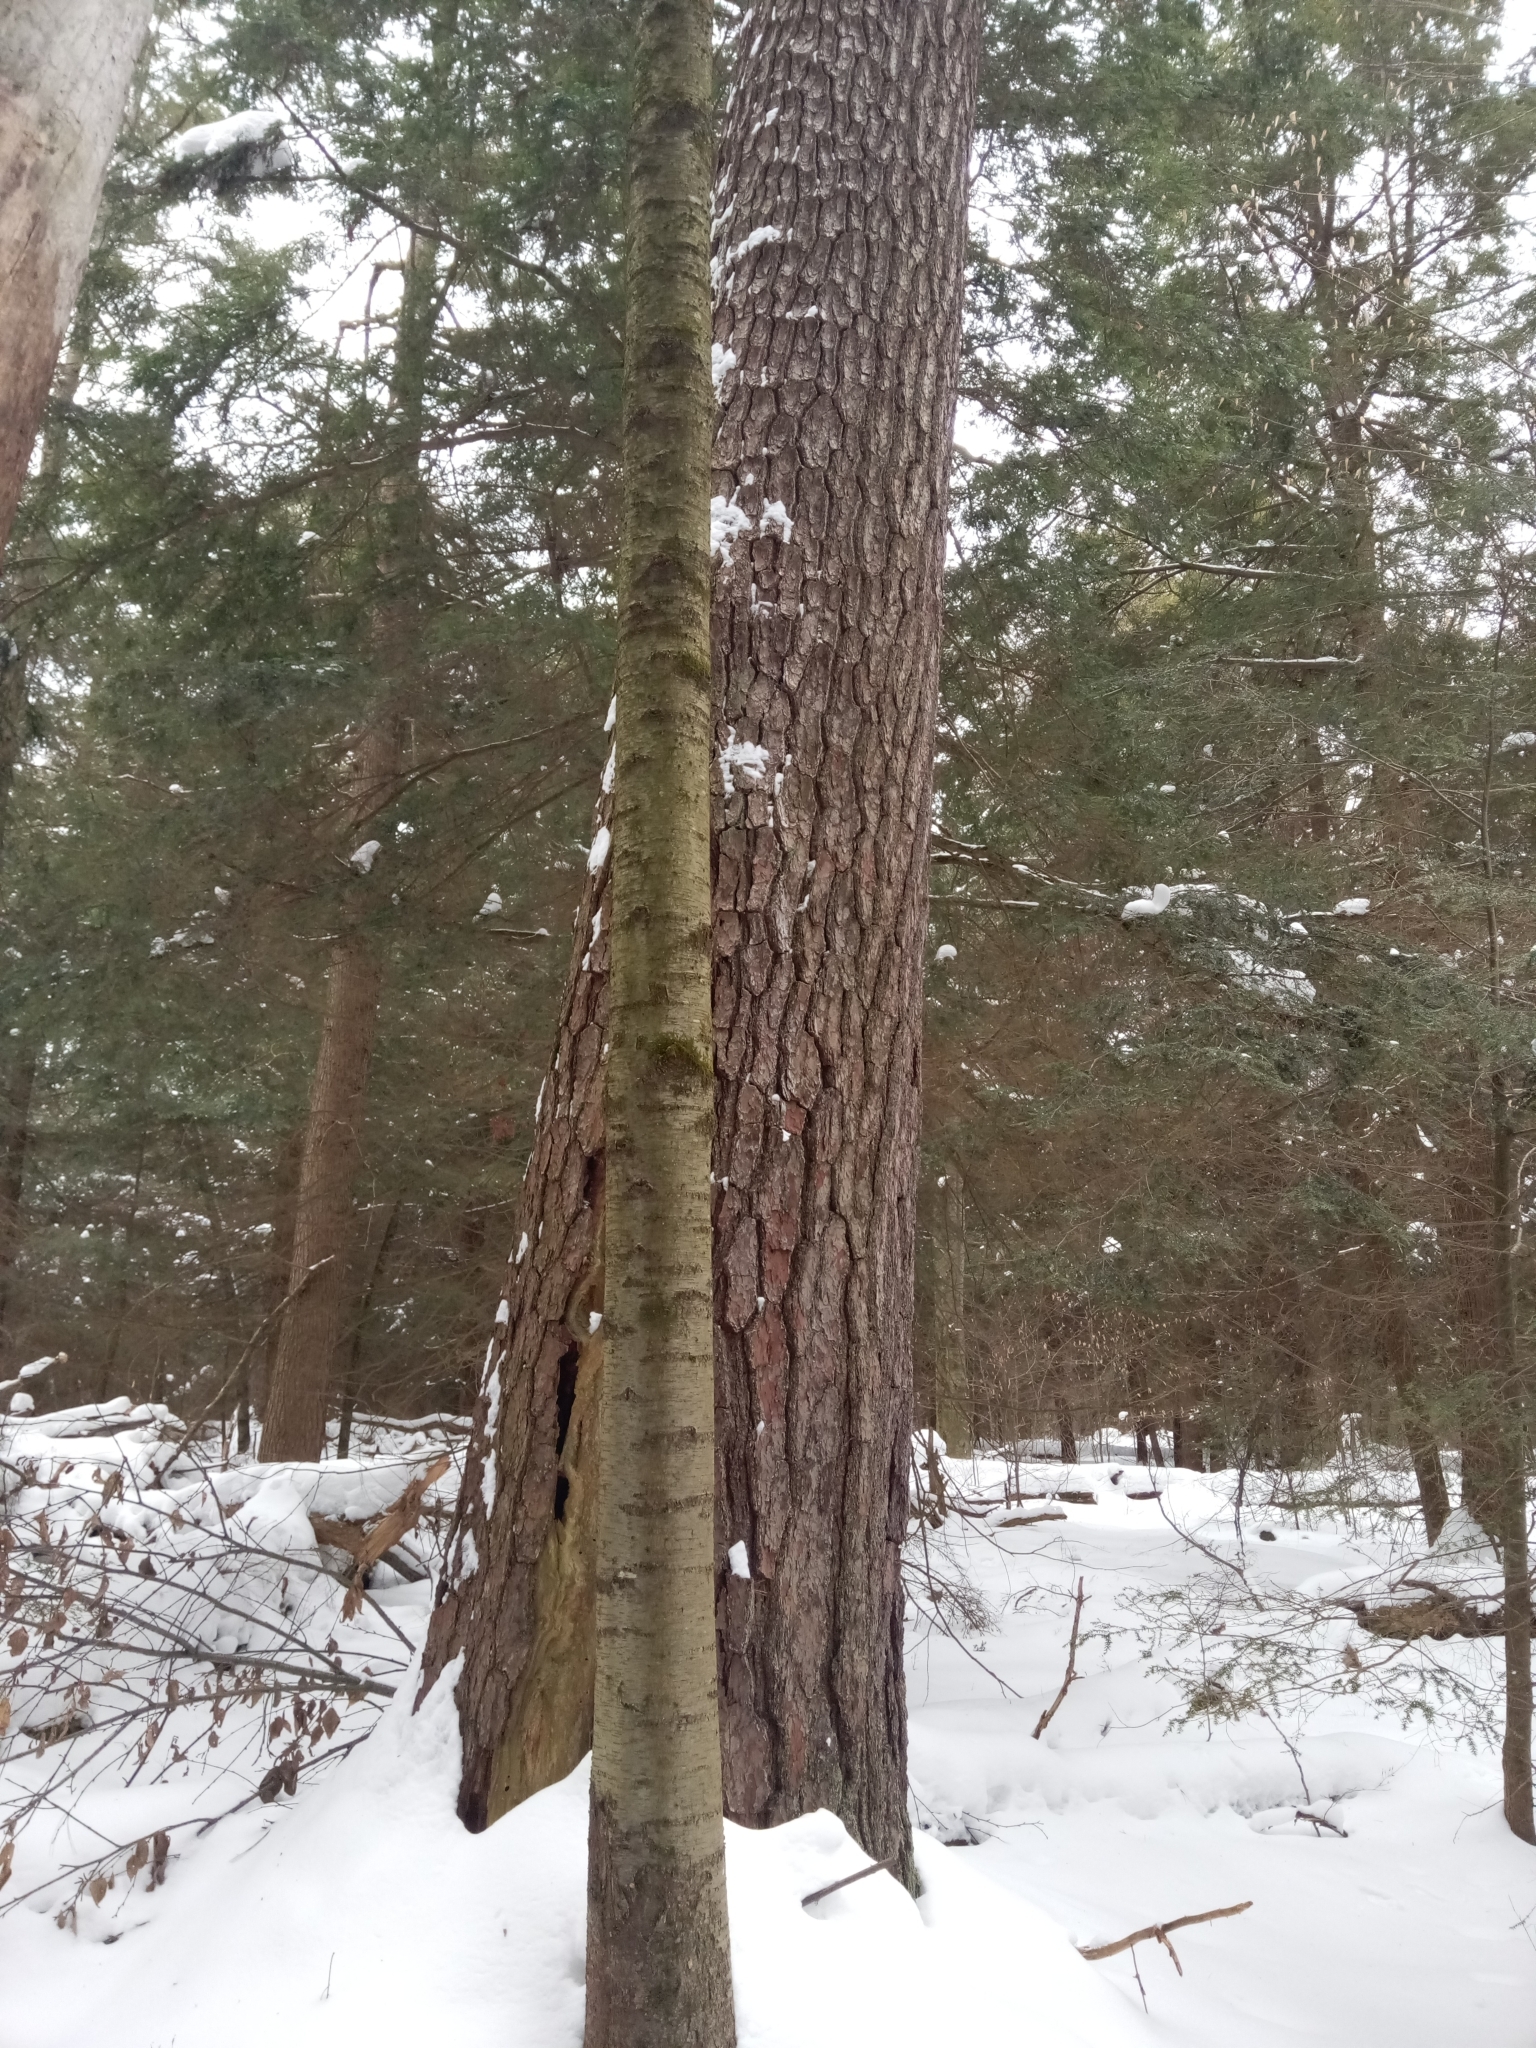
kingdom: Plantae
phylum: Tracheophyta
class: Pinopsida
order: Pinales
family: Pinaceae
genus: Pinus
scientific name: Pinus strobus
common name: Weymouth pine
